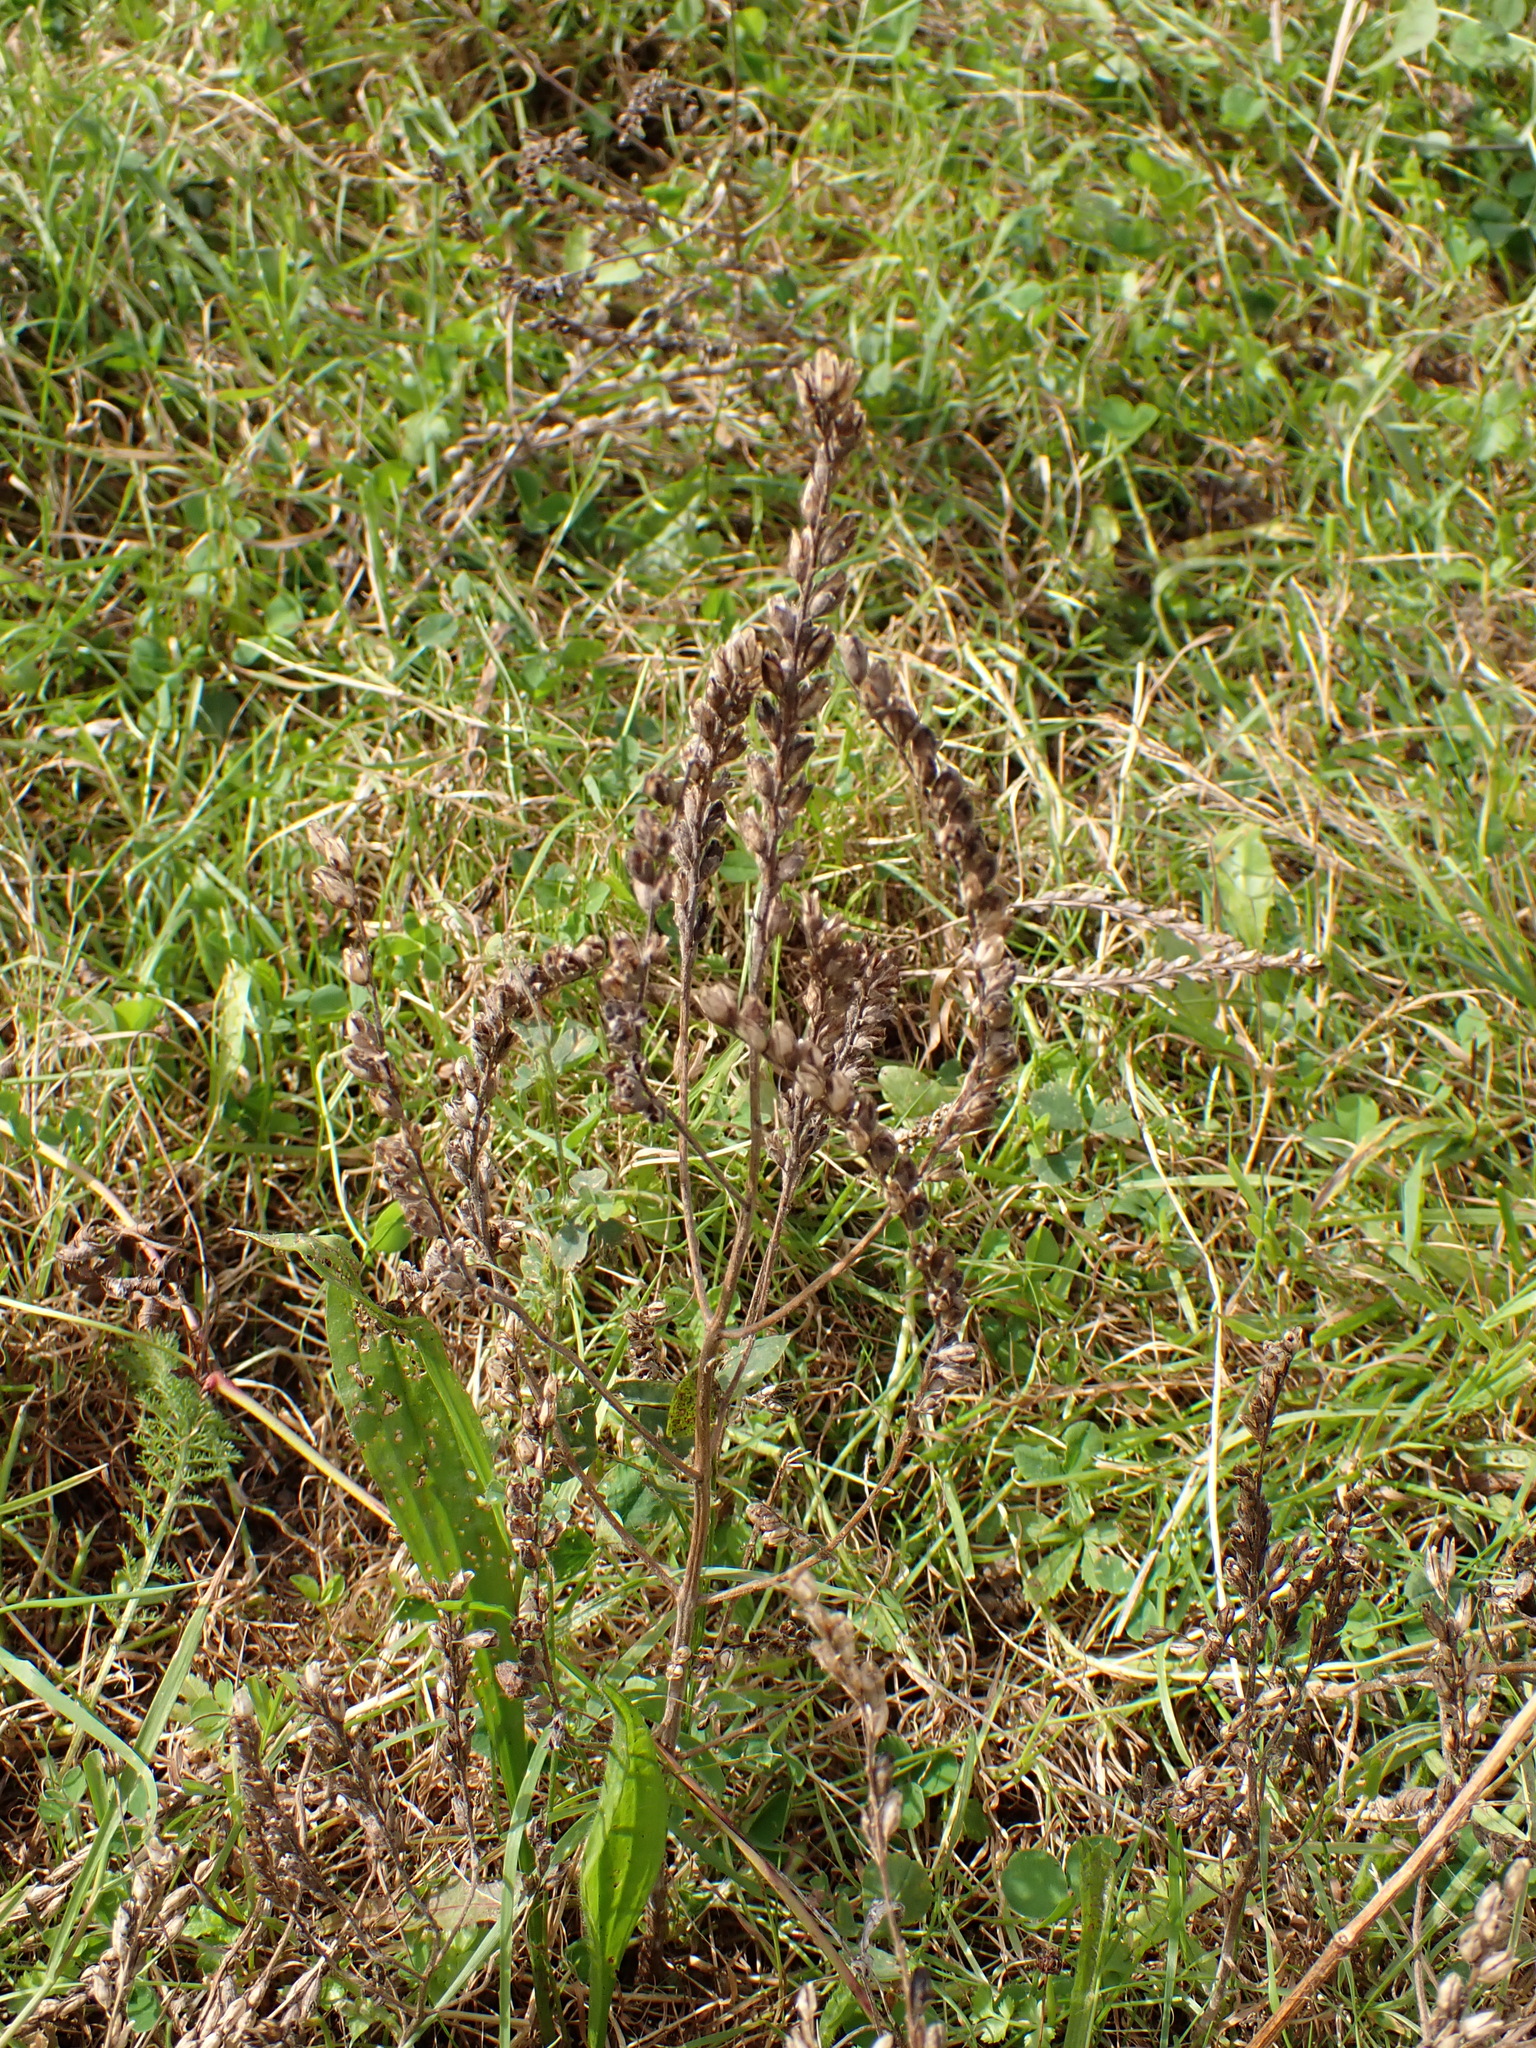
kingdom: Plantae
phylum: Tracheophyta
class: Magnoliopsida
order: Lamiales
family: Orobanchaceae
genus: Odontites
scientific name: Odontites vulgaris
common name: Broomrape
